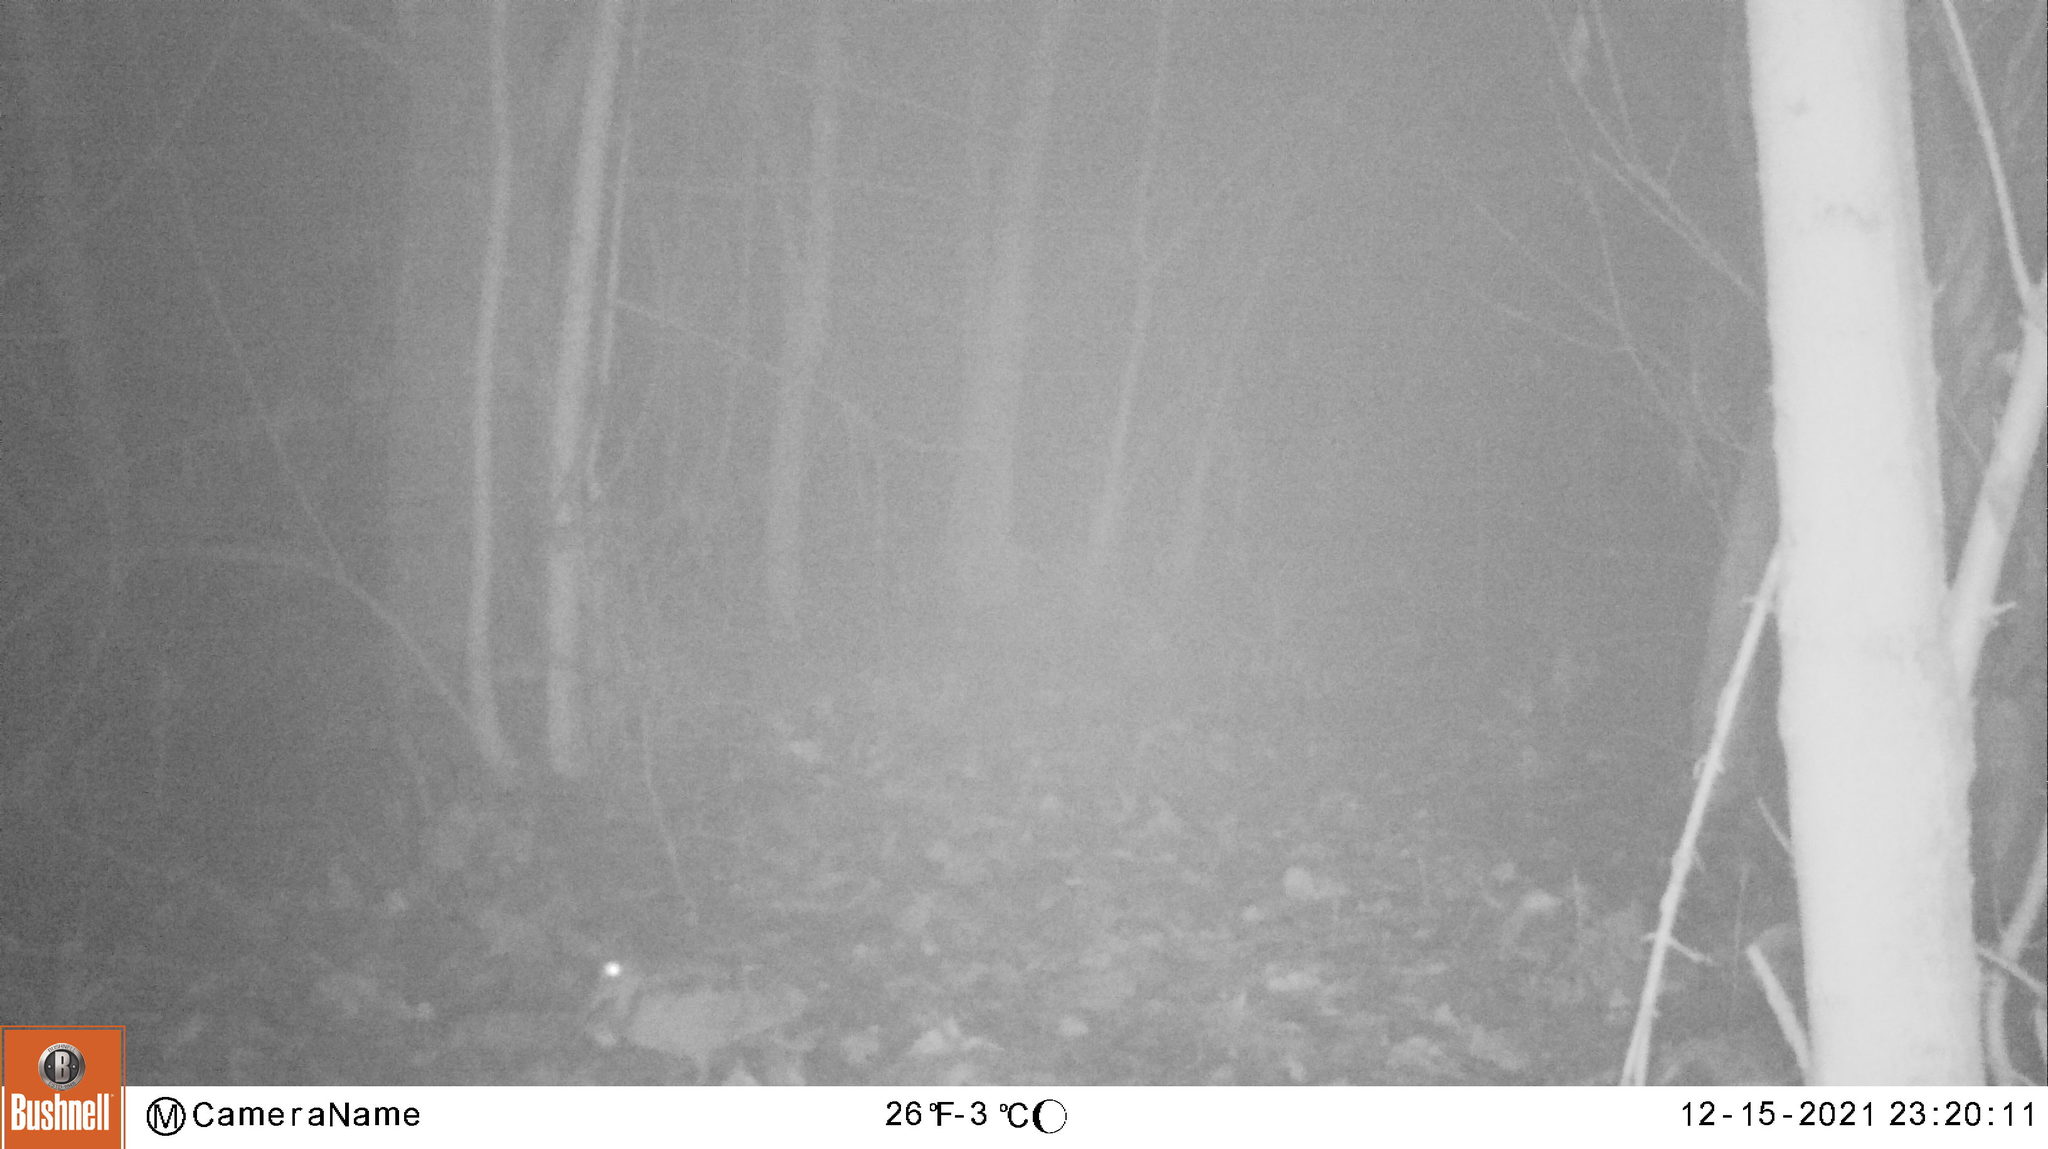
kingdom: Animalia
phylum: Chordata
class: Aves
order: Charadriiformes
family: Scolopacidae
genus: Scolopax
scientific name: Scolopax rusticola
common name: Eurasian woodcock
